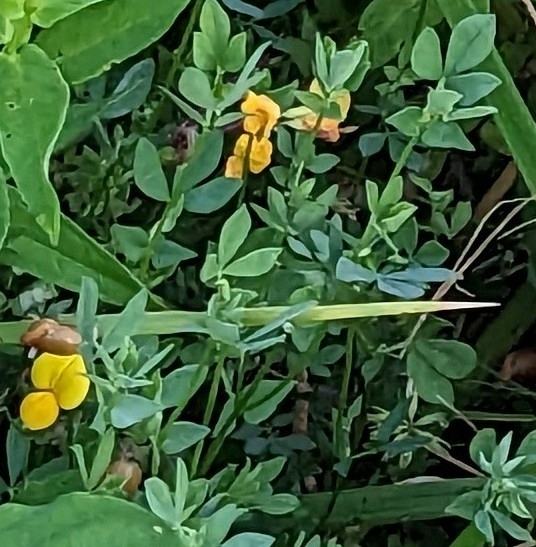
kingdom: Plantae
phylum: Tracheophyta
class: Magnoliopsida
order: Fabales
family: Fabaceae
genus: Lotus
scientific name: Lotus corniculatus
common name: Common bird's-foot-trefoil
